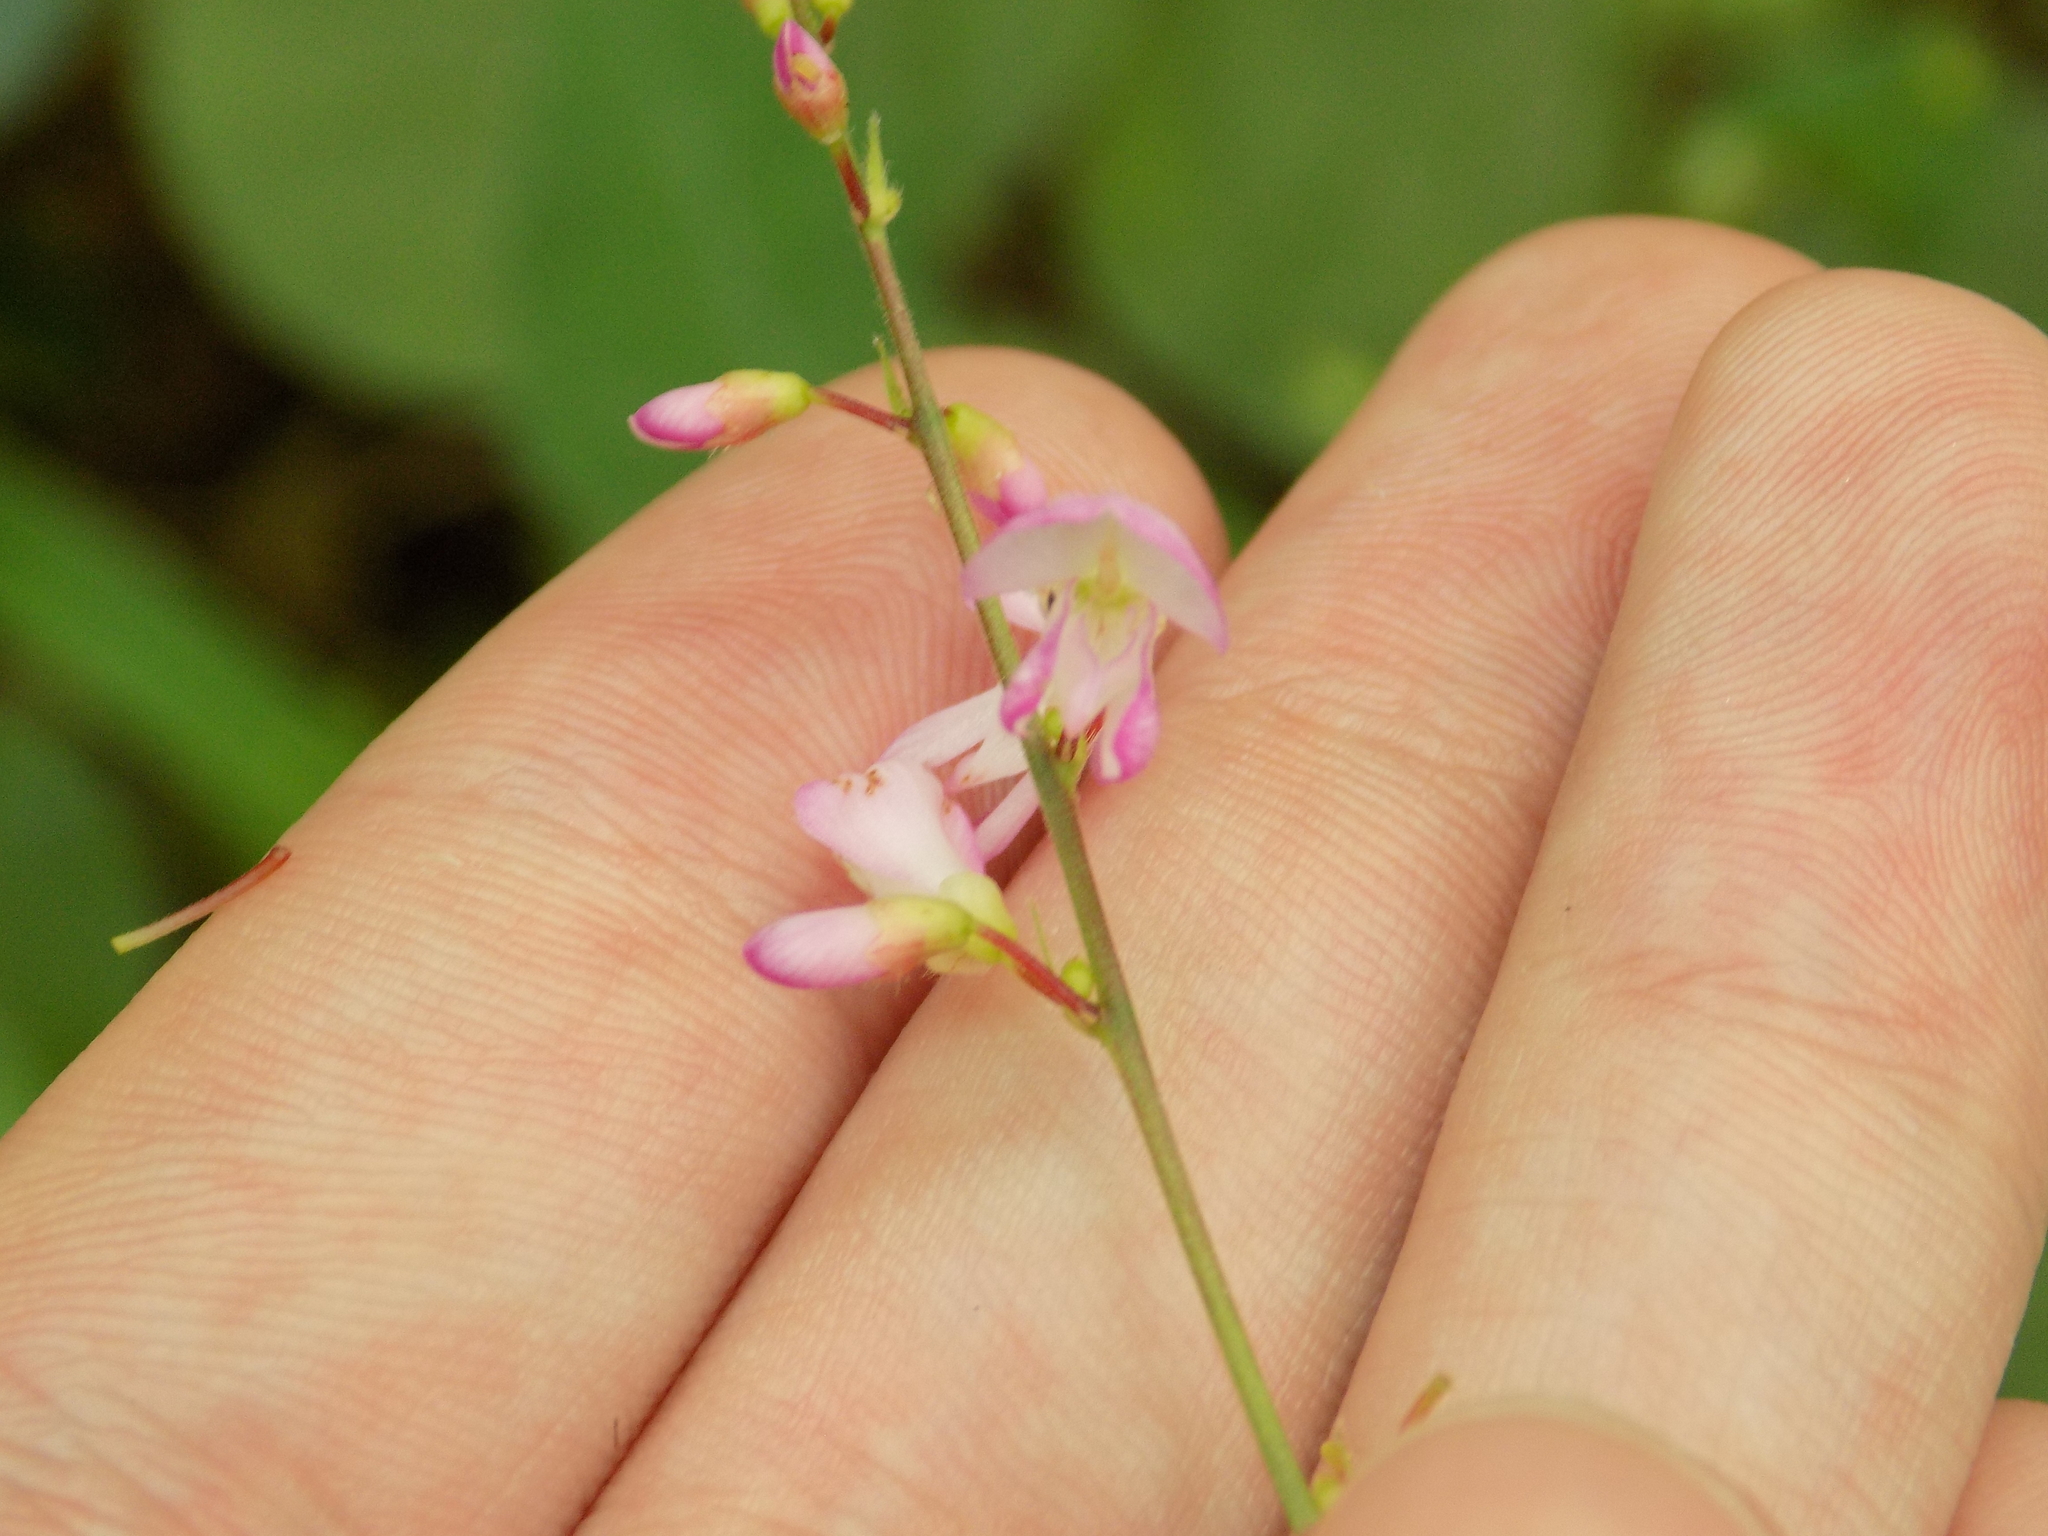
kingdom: Plantae
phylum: Tracheophyta
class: Magnoliopsida
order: Fabales
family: Fabaceae
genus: Hylodesmum
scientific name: Hylodesmum glutinosum
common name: Clustered-leaved tick-trefoil
